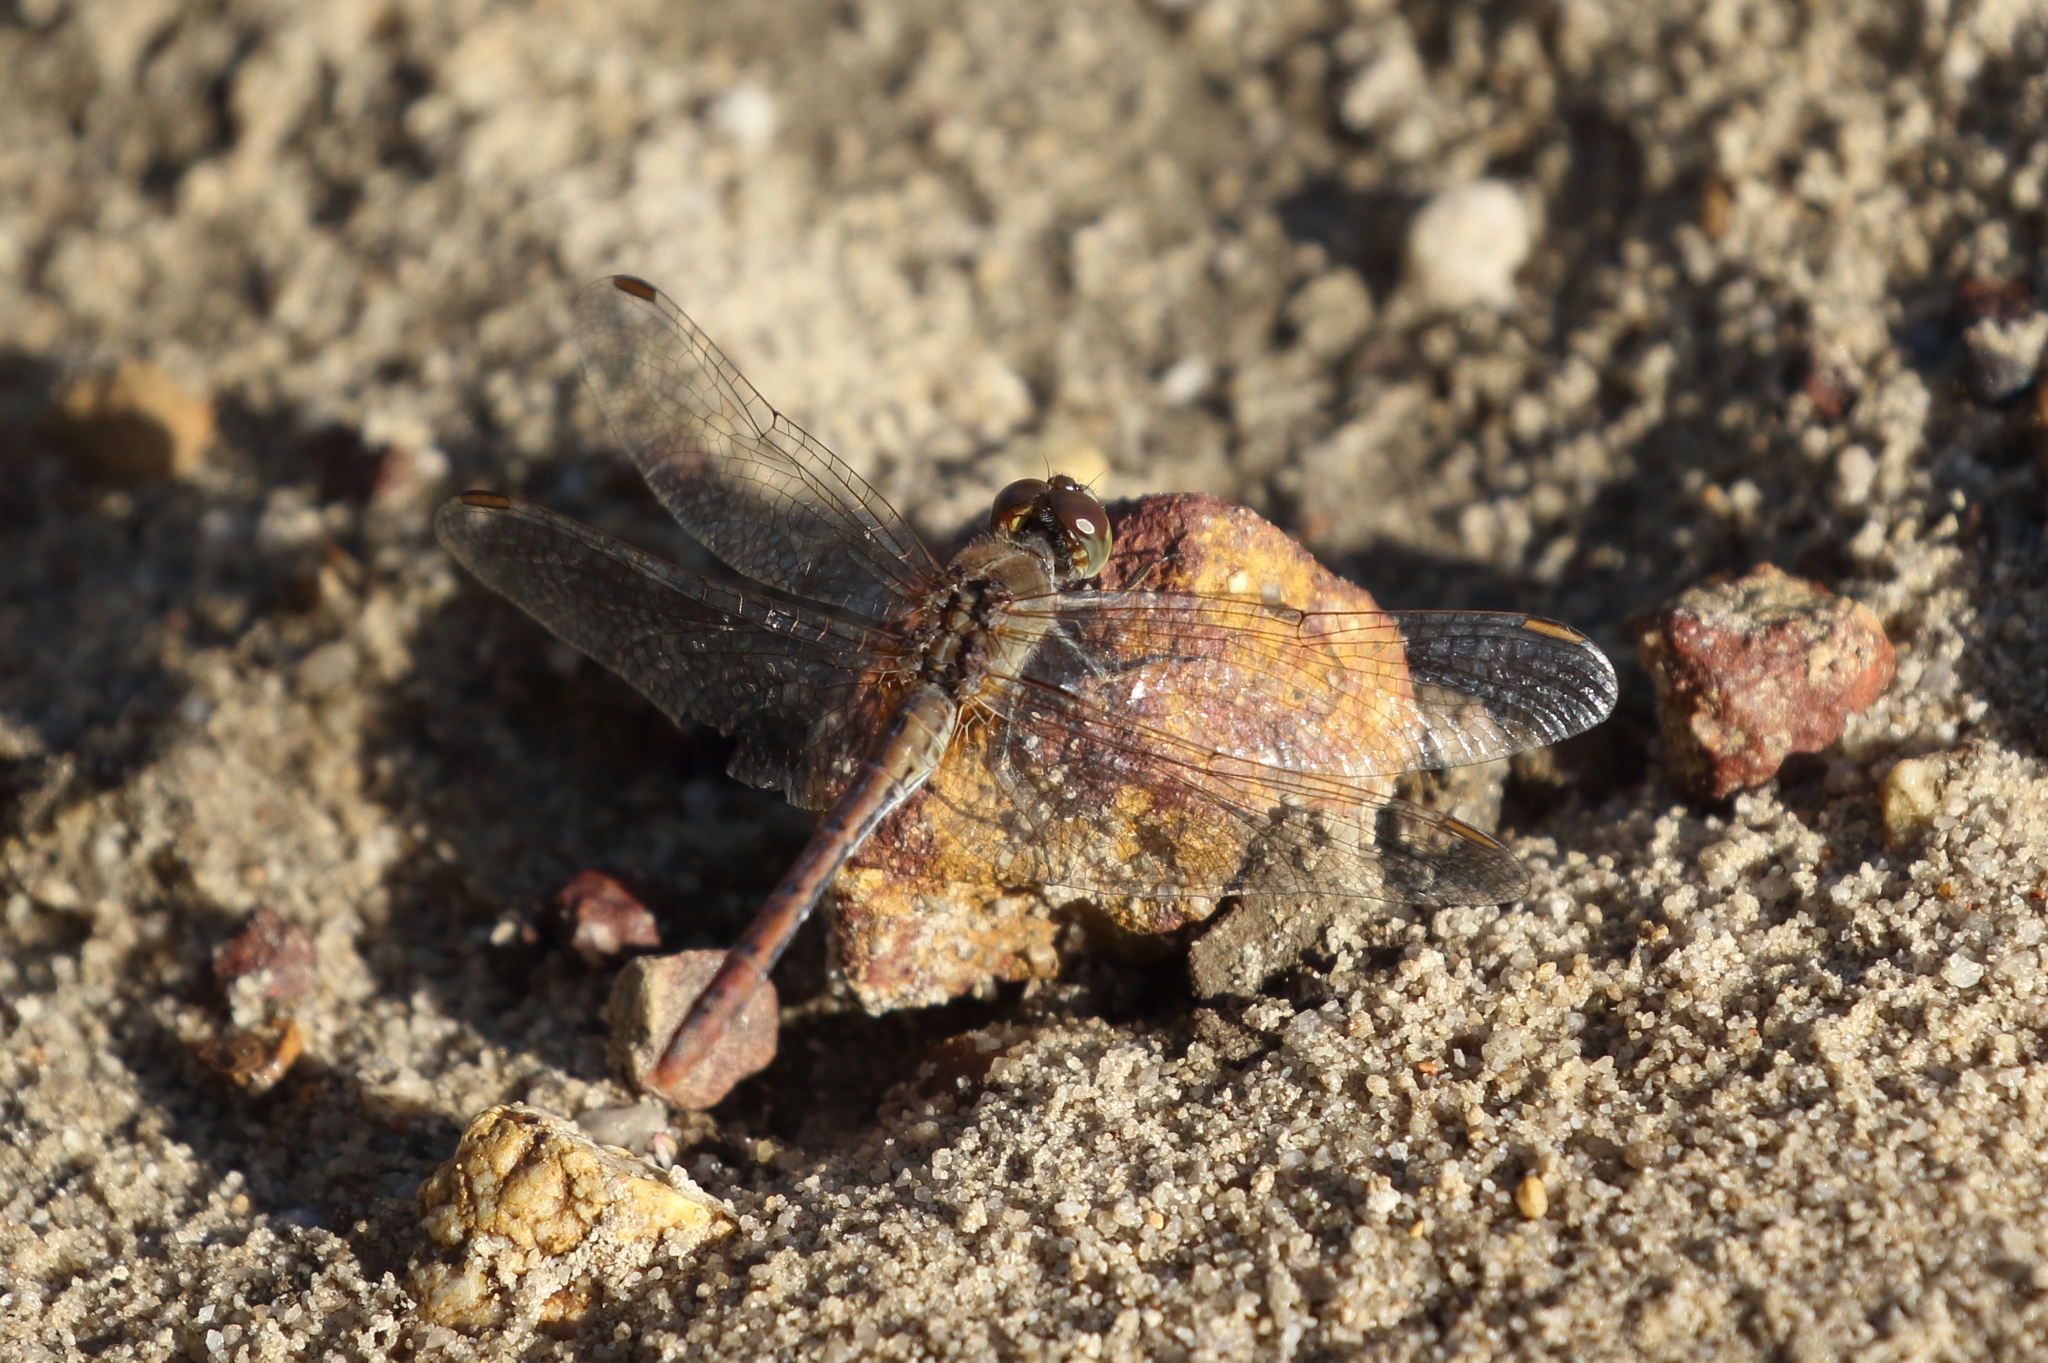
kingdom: Animalia
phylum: Arthropoda
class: Insecta
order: Odonata
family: Libellulidae
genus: Diplacodes
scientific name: Diplacodes bipunctata
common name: Red percher dragonfly
